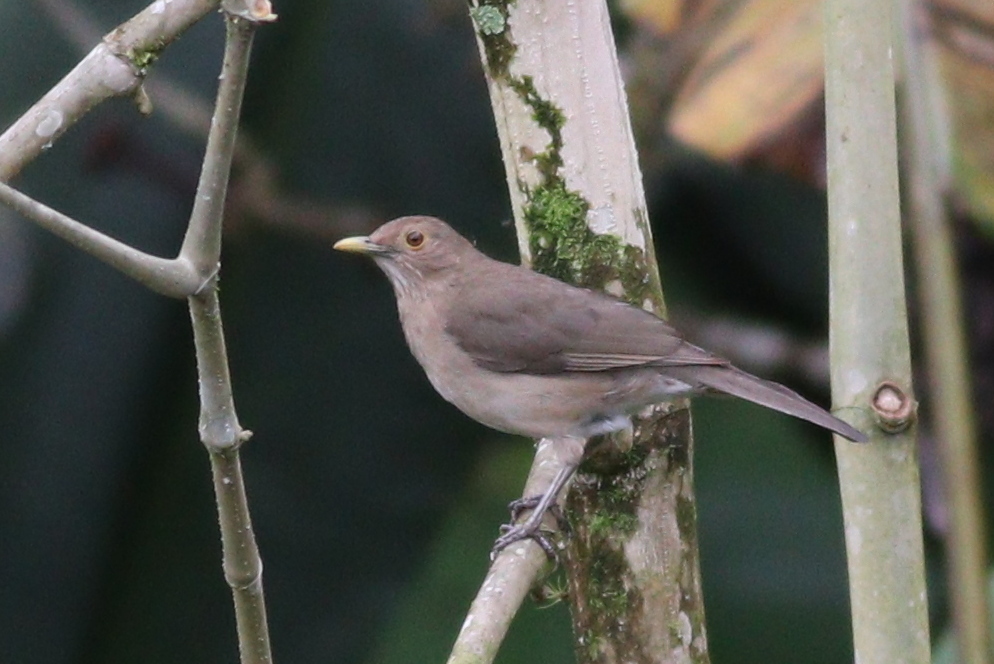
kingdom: Animalia
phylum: Chordata
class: Aves
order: Passeriformes
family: Turdidae
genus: Turdus
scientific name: Turdus maculirostris
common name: Ecuadorian thrush
